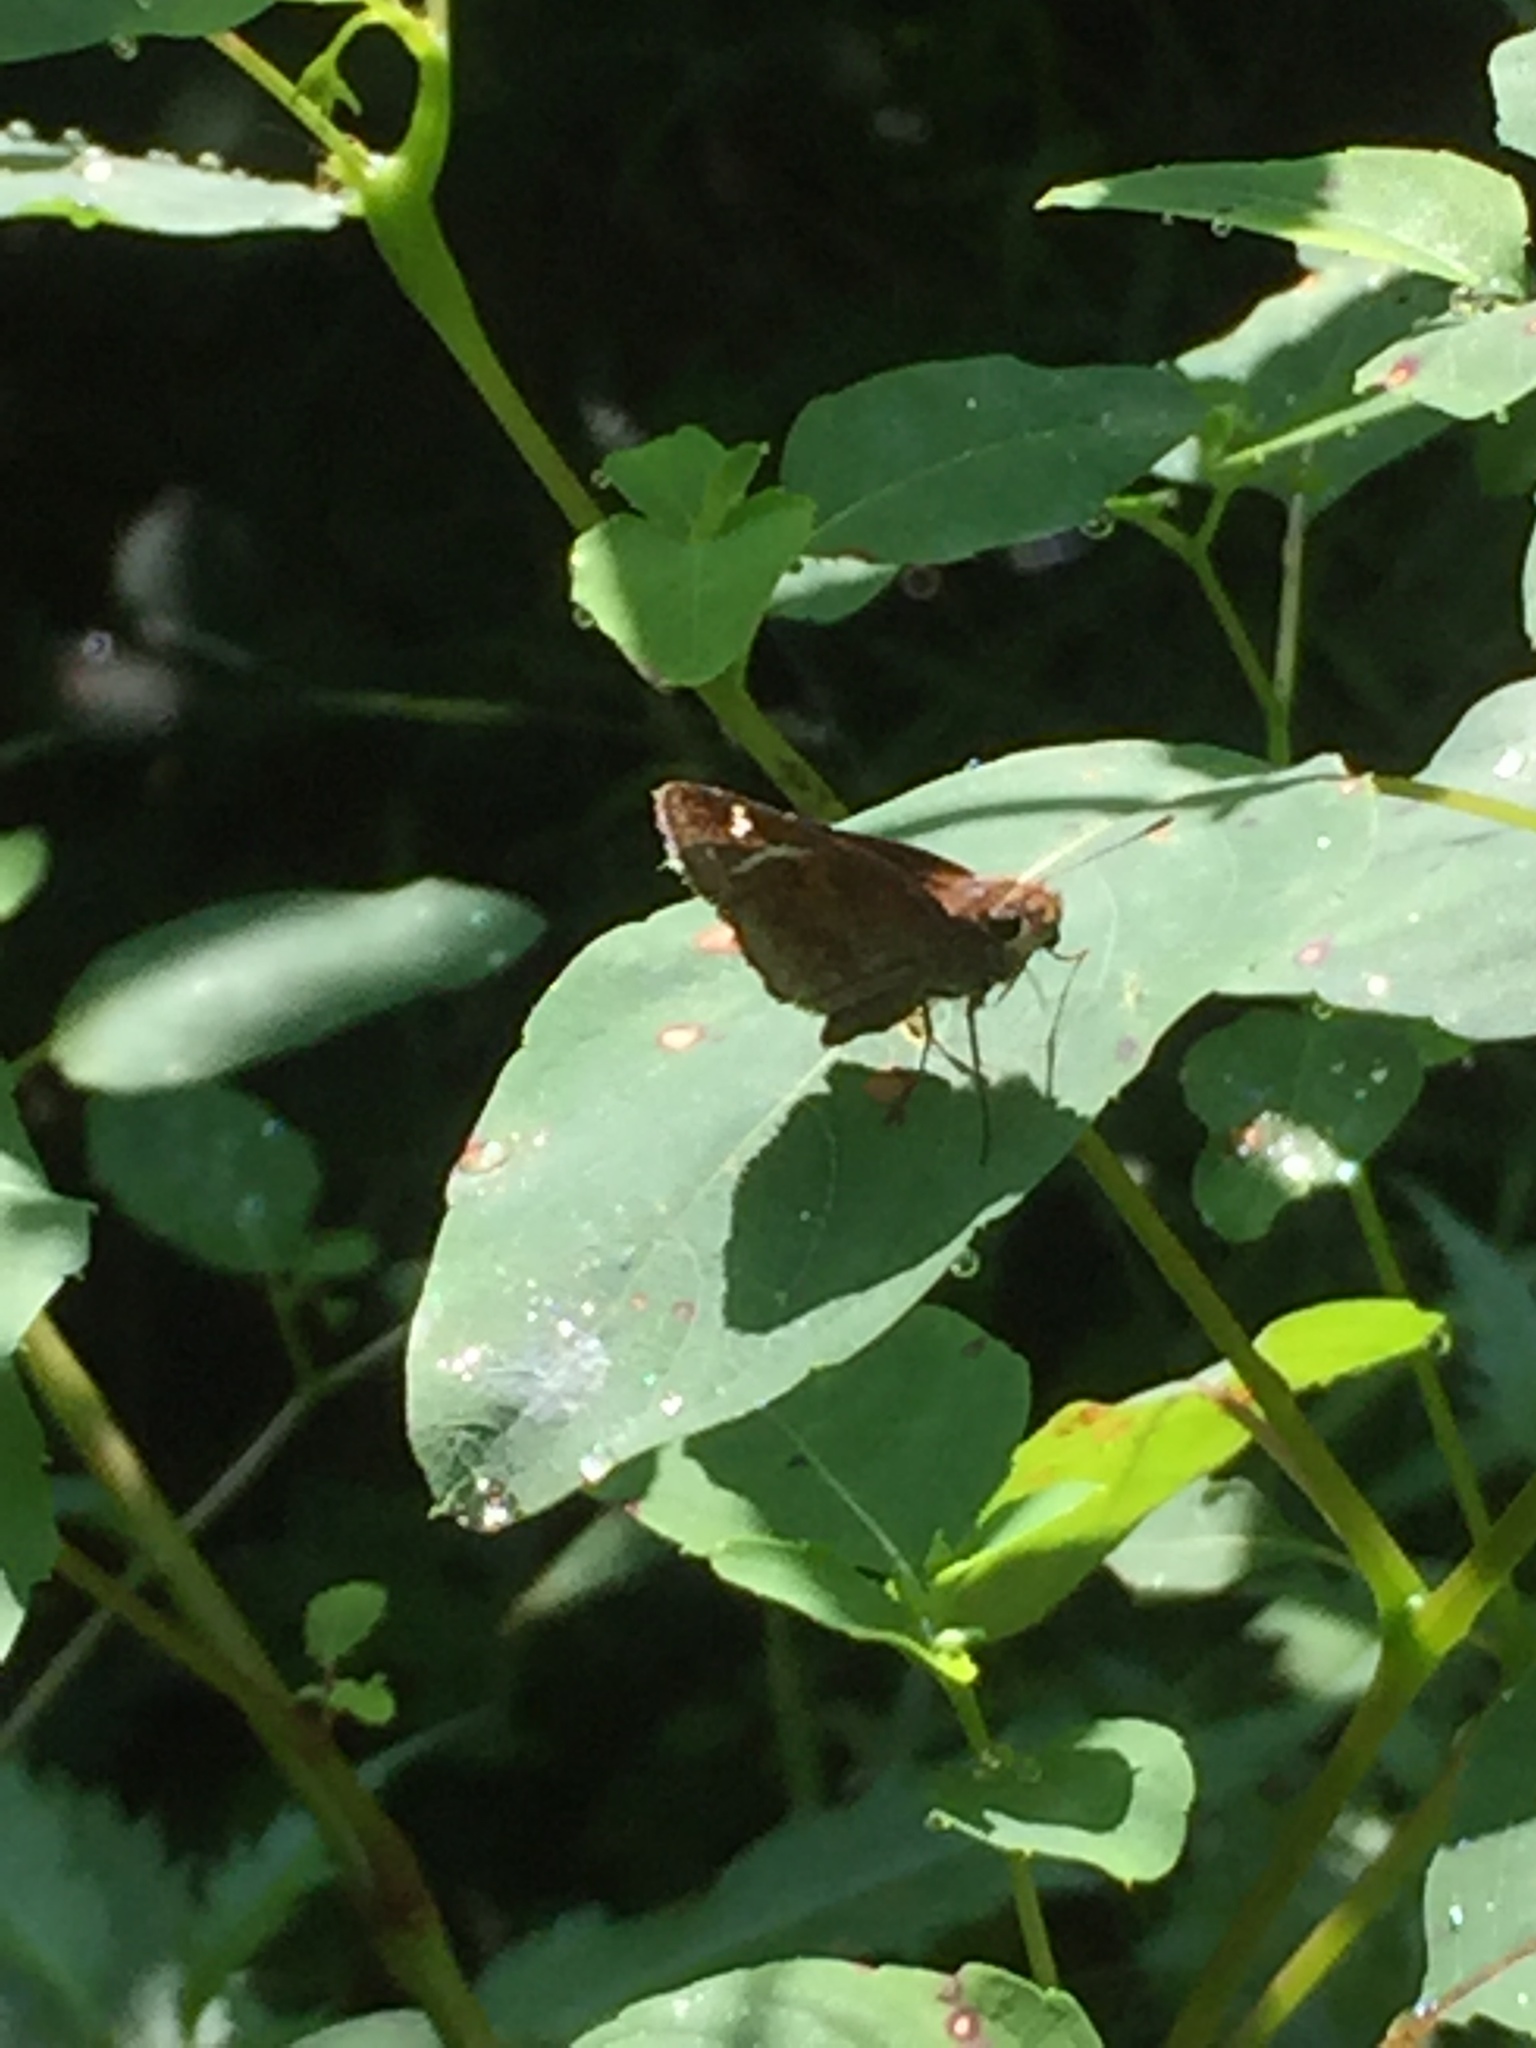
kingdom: Animalia
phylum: Arthropoda
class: Insecta
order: Lepidoptera
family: Hesperiidae
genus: Lon
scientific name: Lon zabulon
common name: Zabulon skipper
